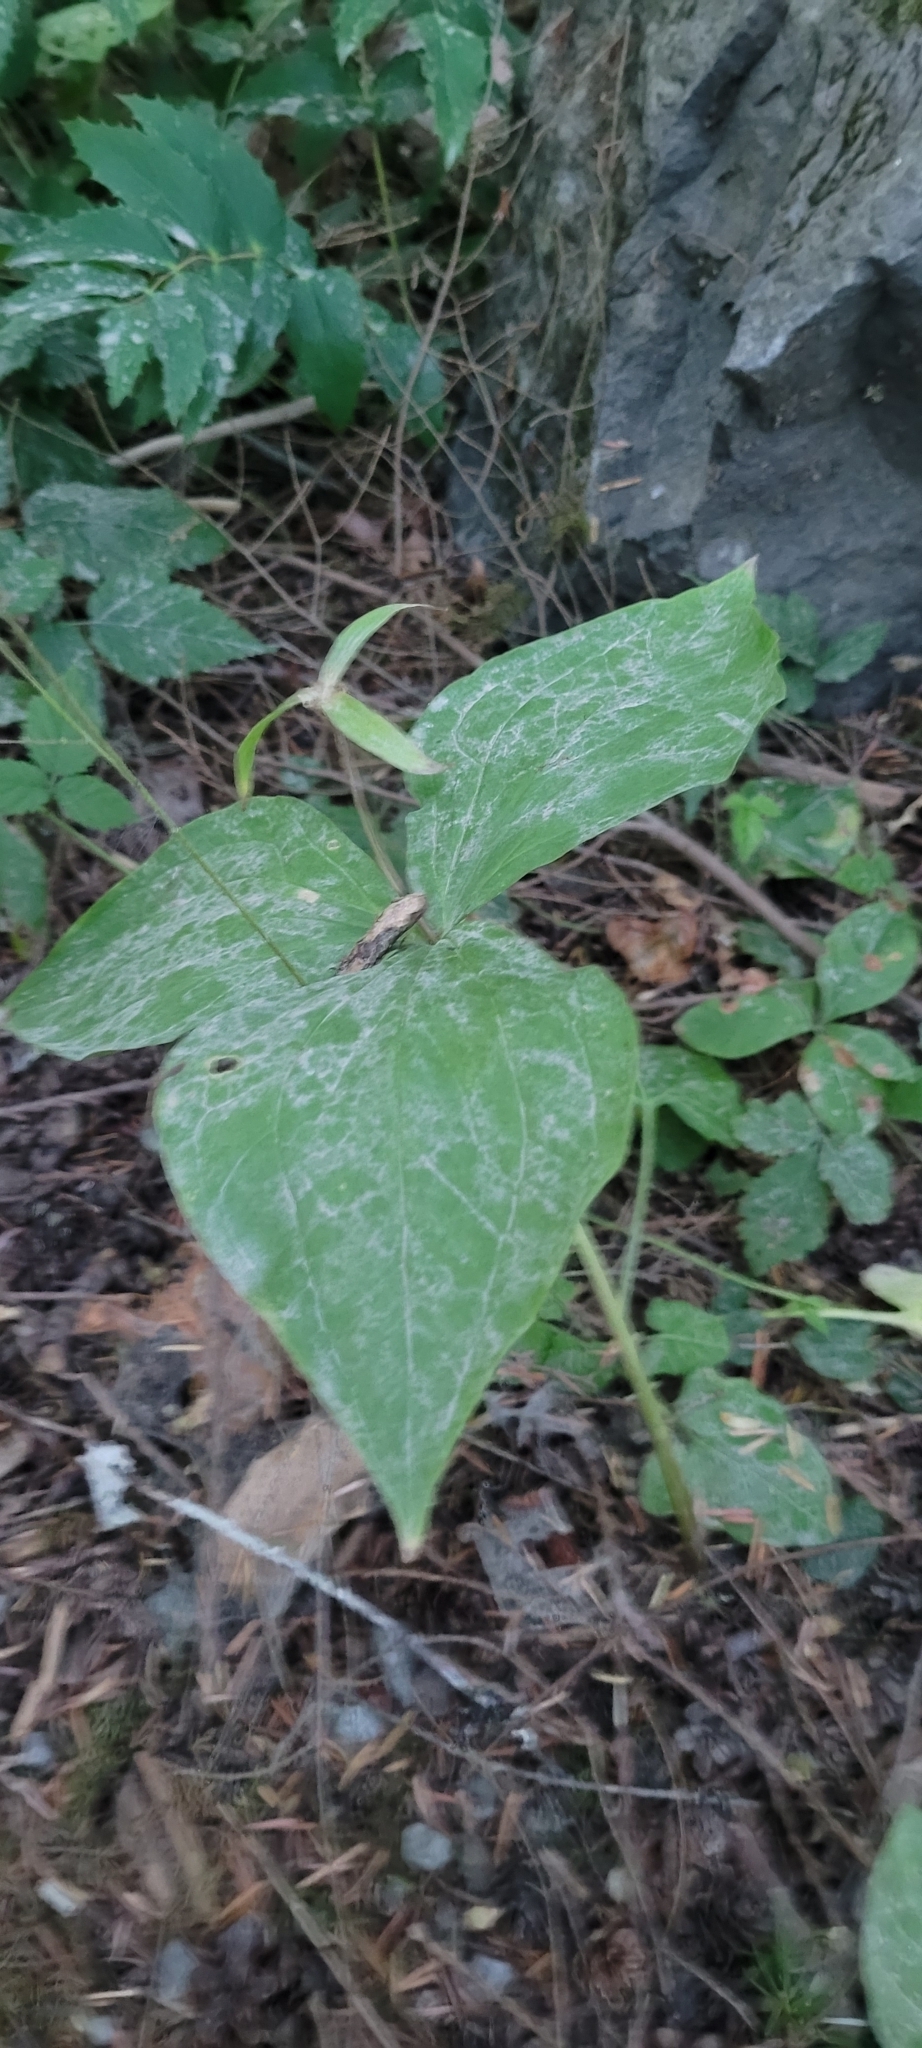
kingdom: Plantae
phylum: Tracheophyta
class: Liliopsida
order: Liliales
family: Melanthiaceae
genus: Trillium
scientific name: Trillium ovatum
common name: Pacific trillium
